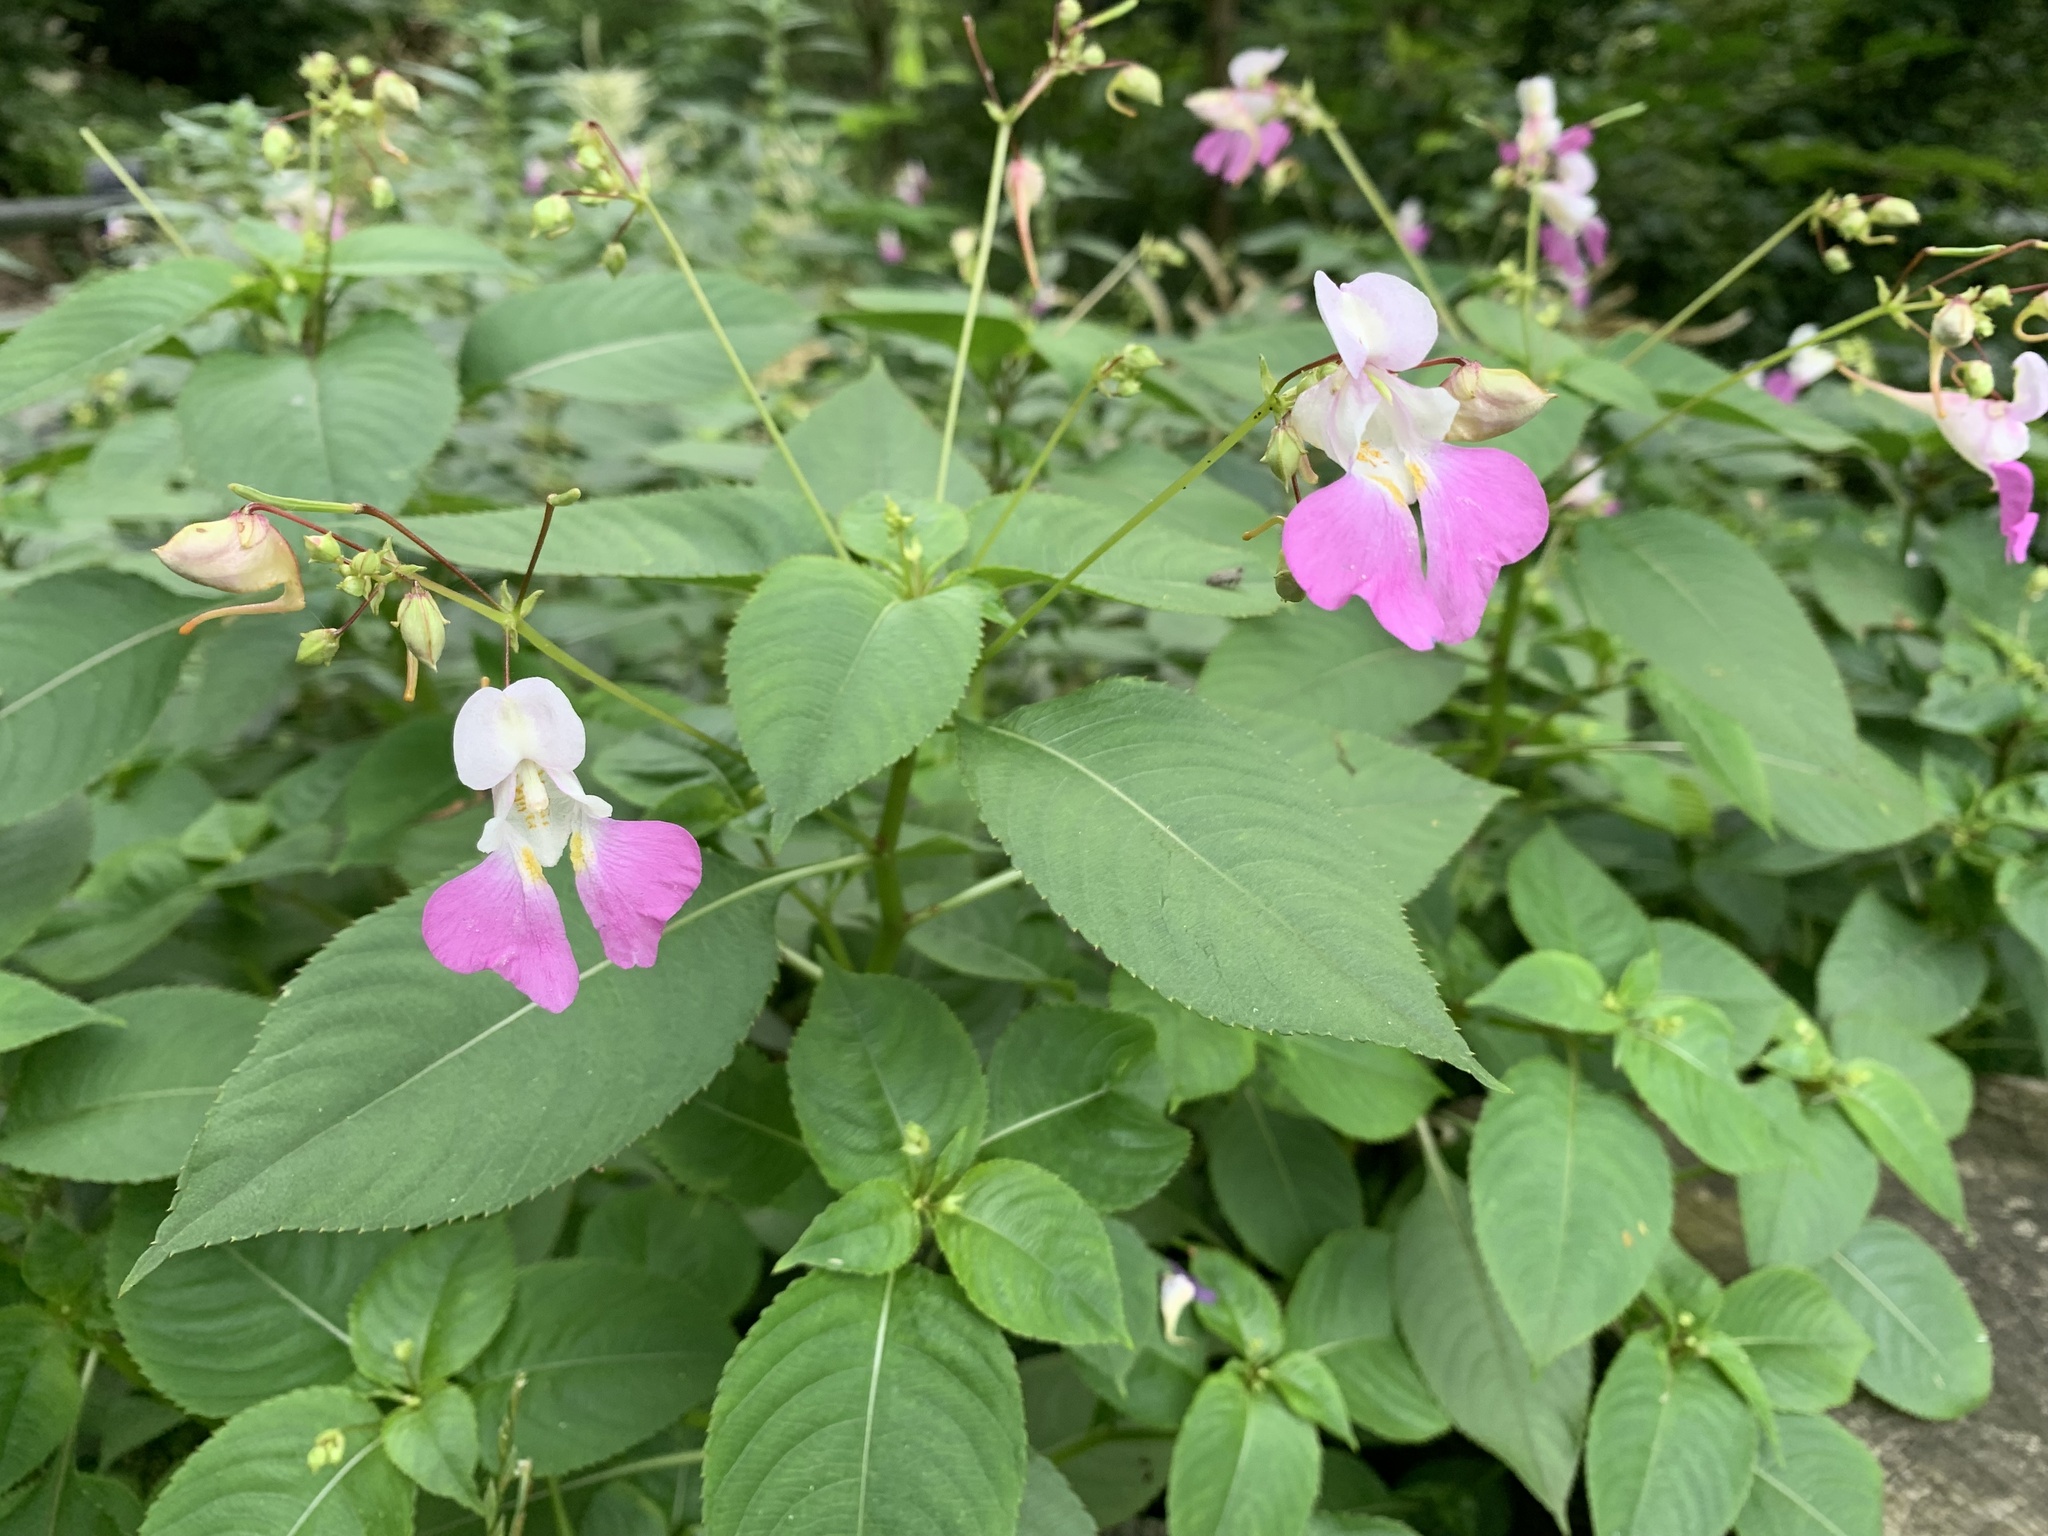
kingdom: Plantae
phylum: Tracheophyta
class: Magnoliopsida
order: Ericales
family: Balsaminaceae
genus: Impatiens
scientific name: Impatiens balfourii
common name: Balfour's touch-me-not
